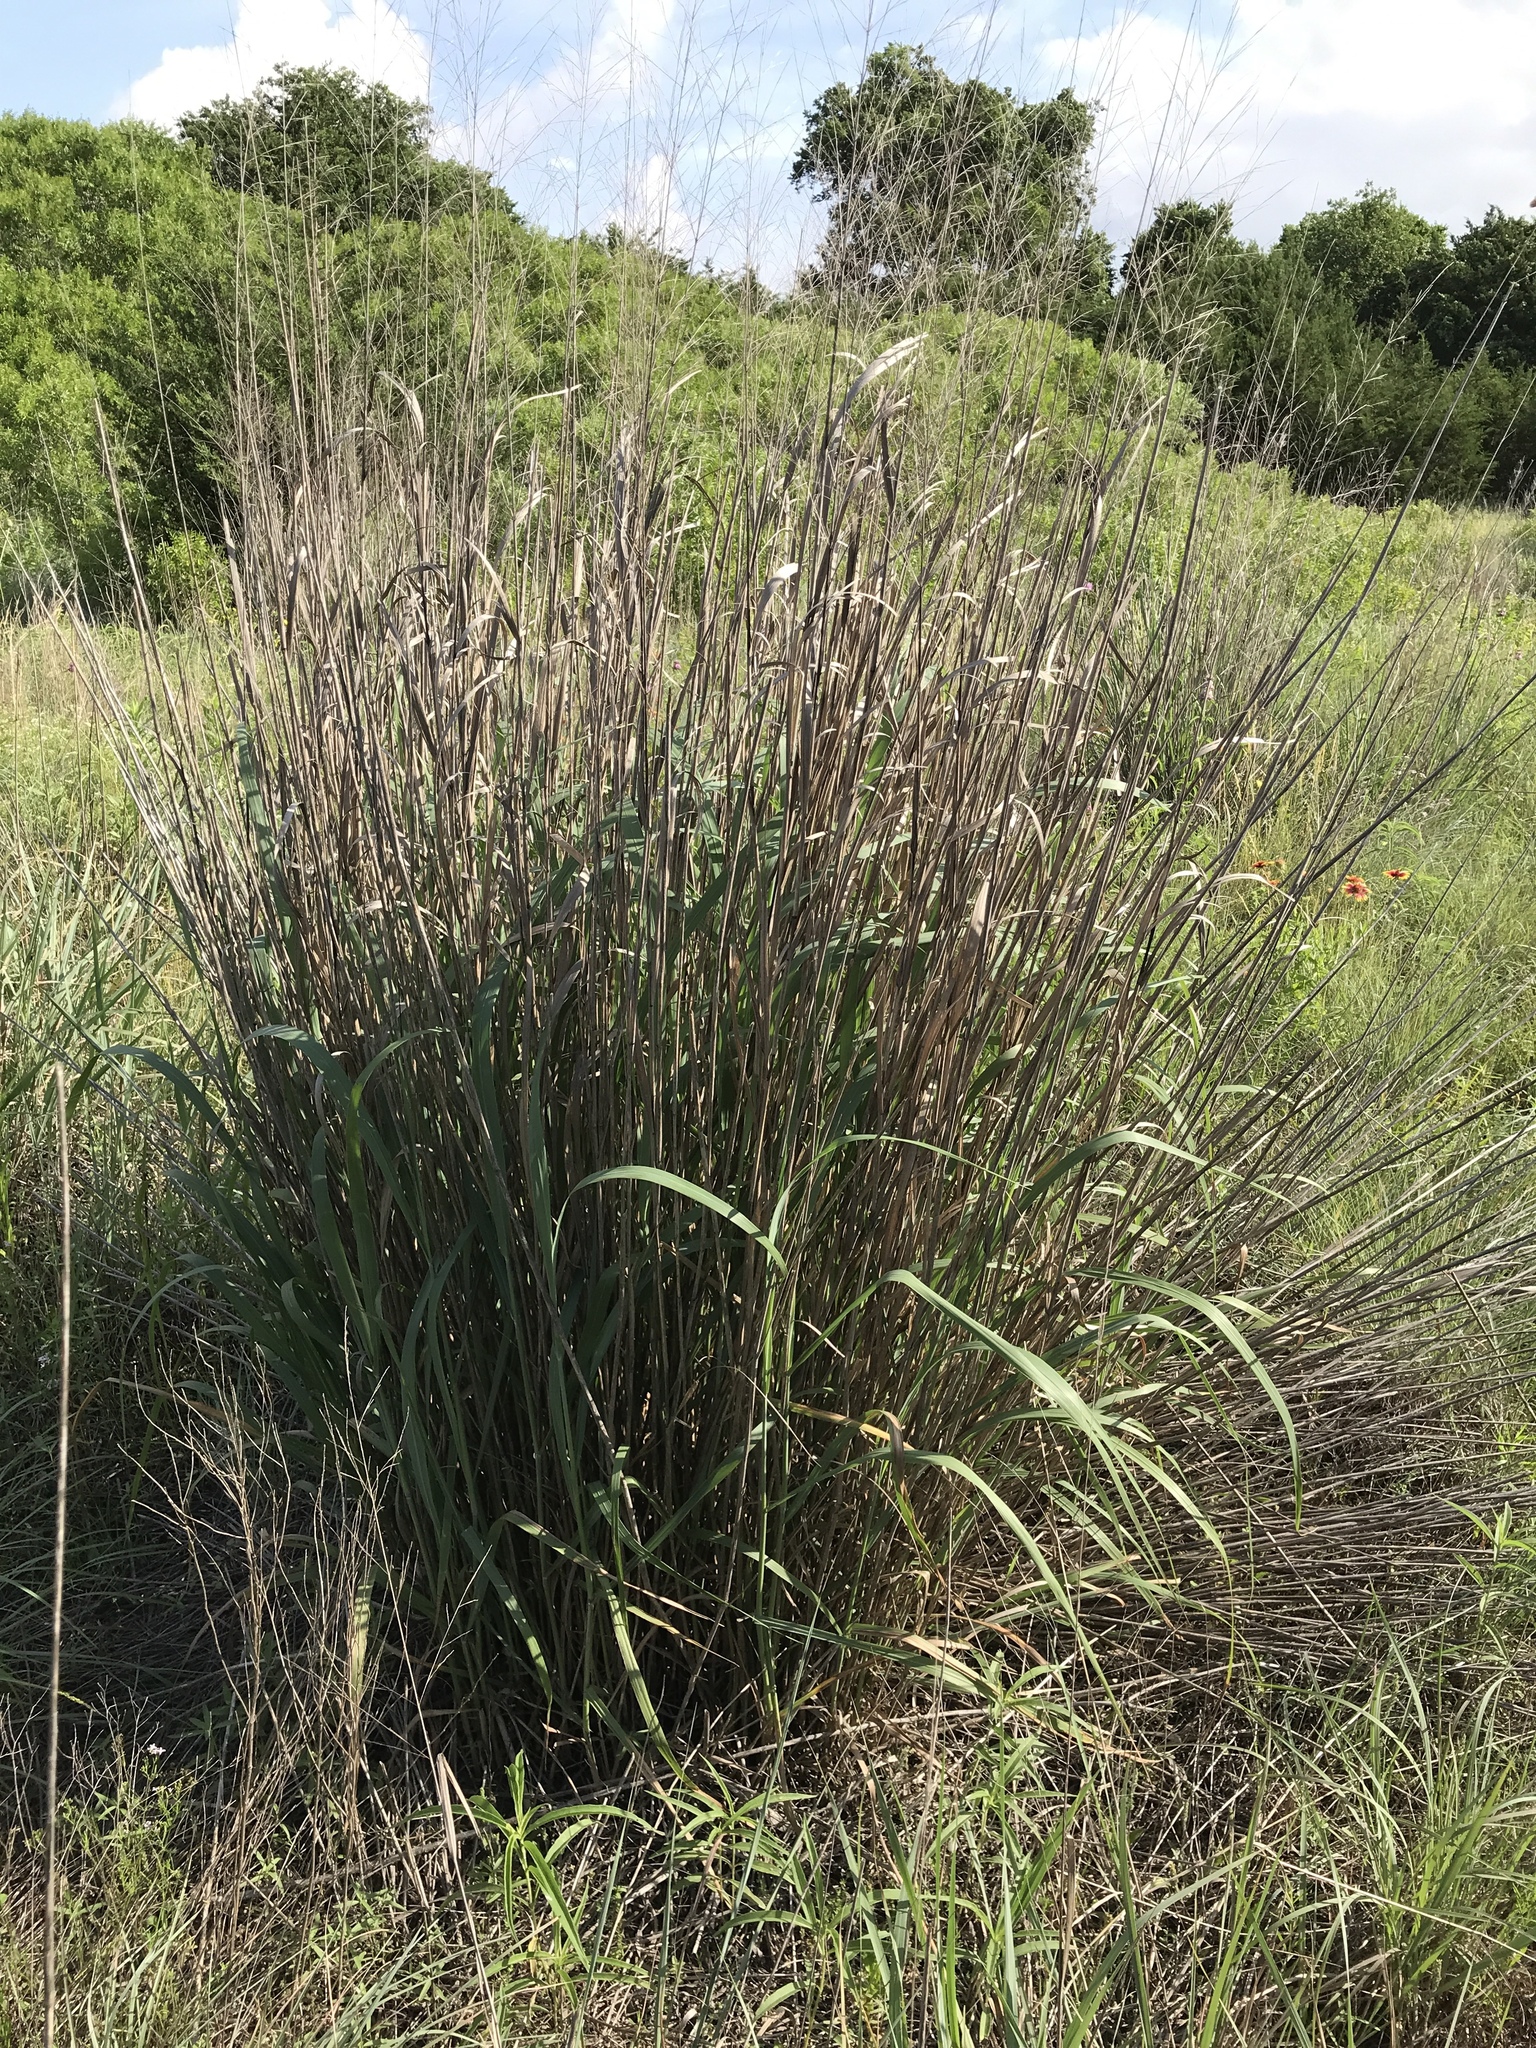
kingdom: Plantae
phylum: Tracheophyta
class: Liliopsida
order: Poales
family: Poaceae
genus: Panicum
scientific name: Panicum virgatum
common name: Switchgrass
